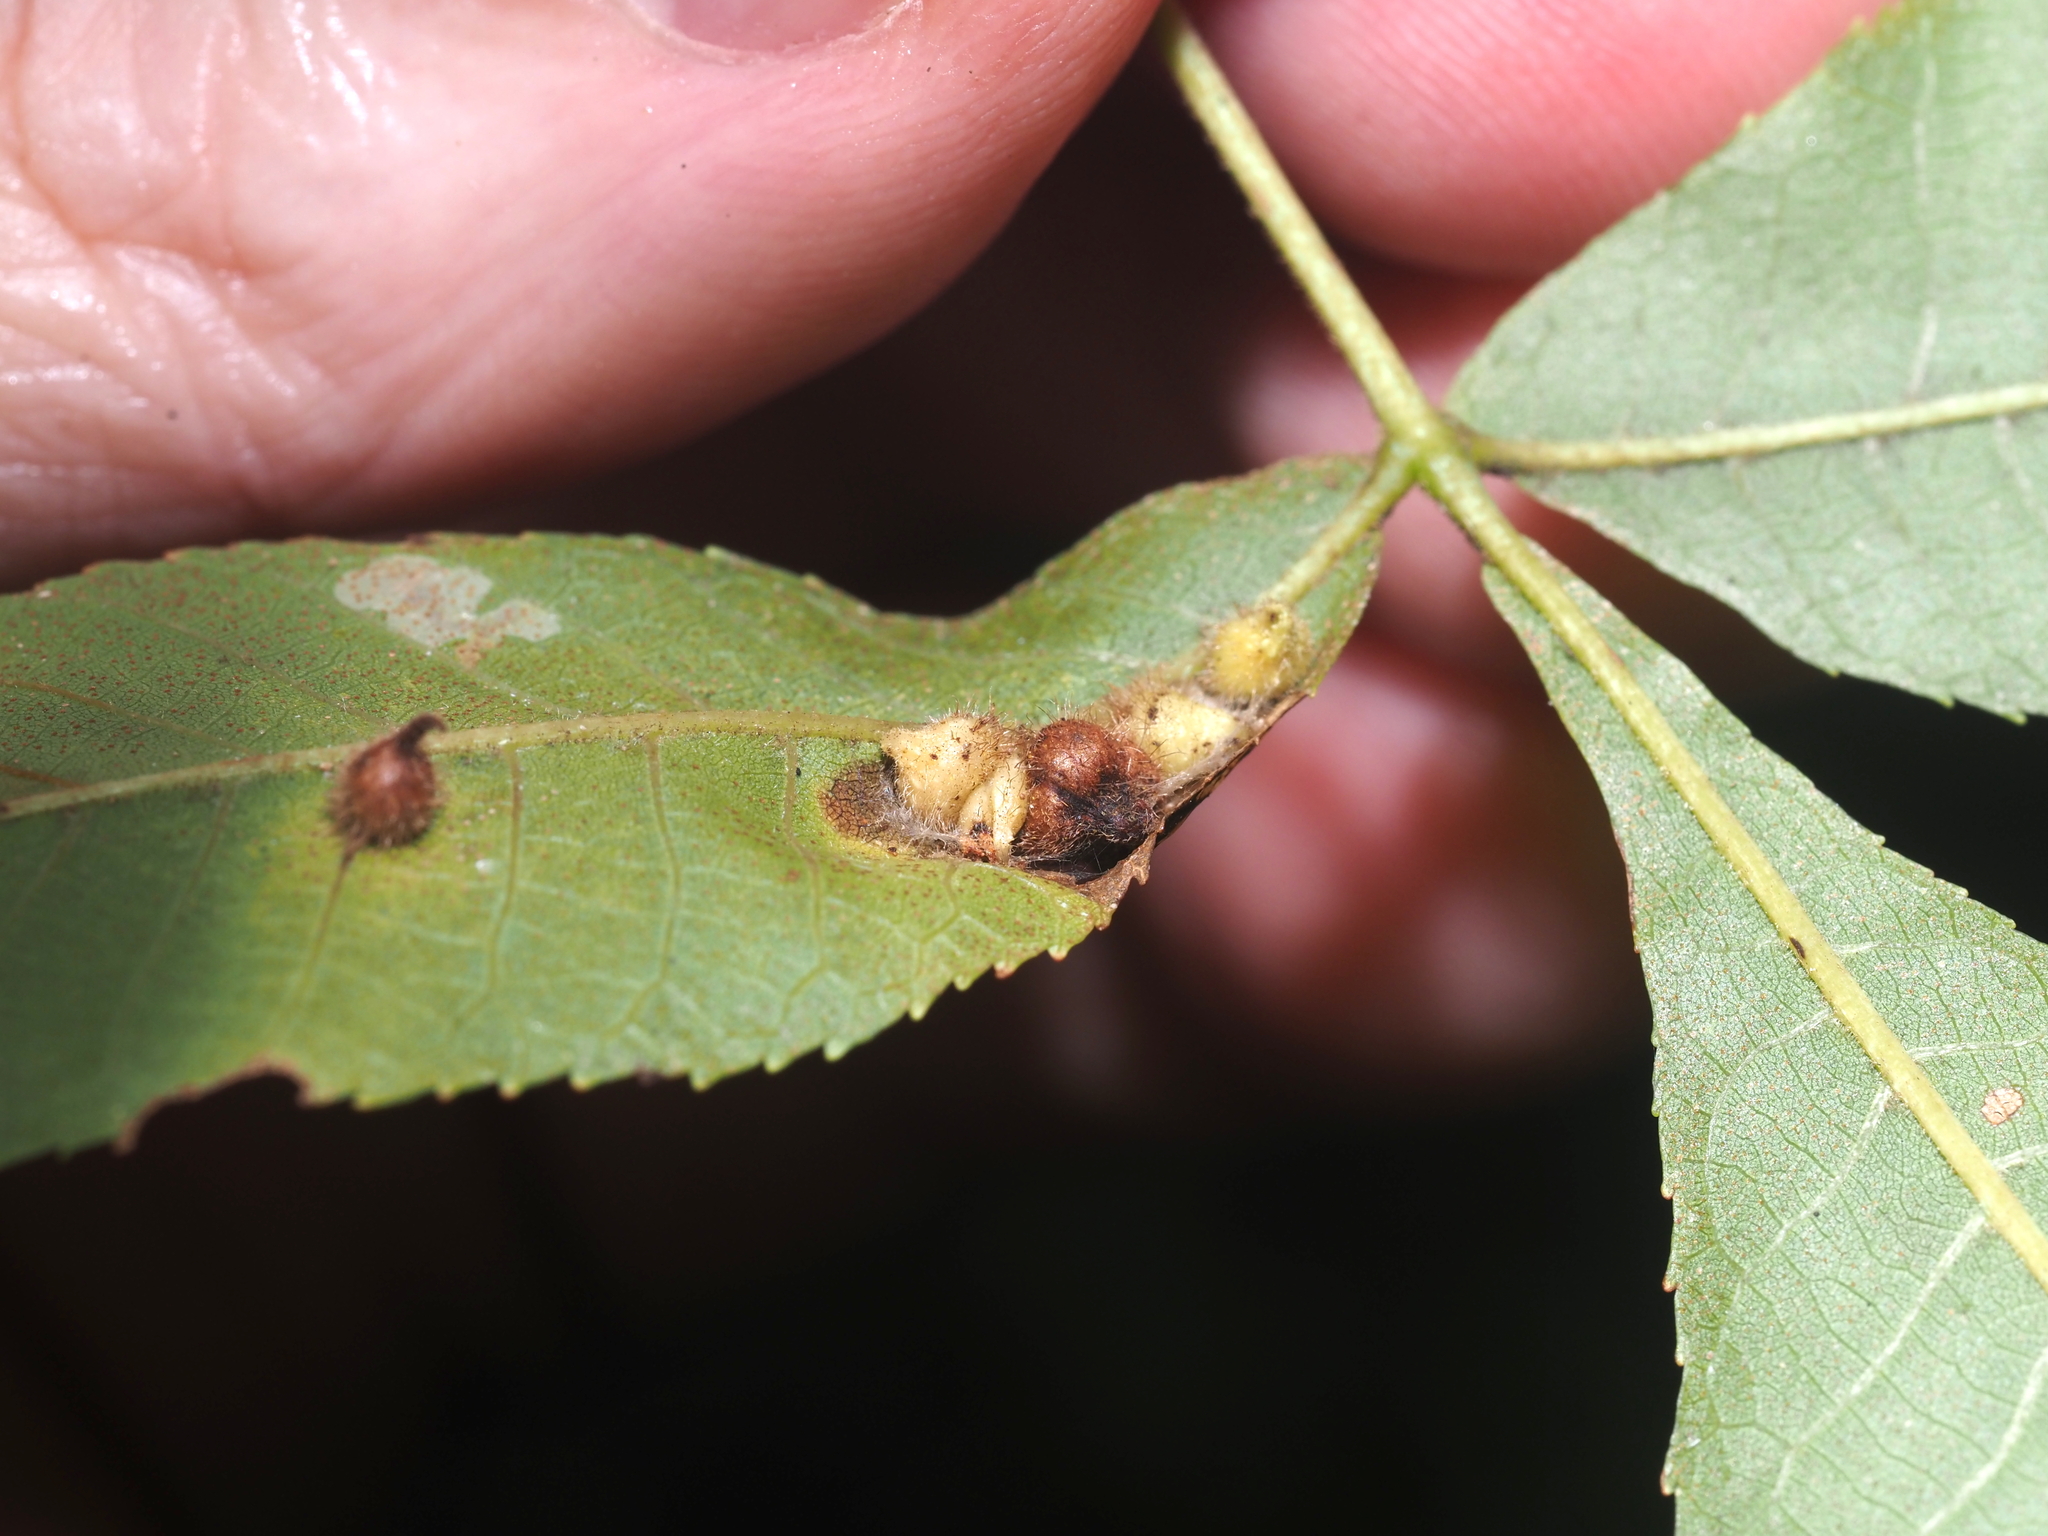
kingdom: Animalia
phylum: Arthropoda
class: Insecta
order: Diptera
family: Cecidomyiidae
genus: Caryomyia
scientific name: Caryomyia ansericollum
